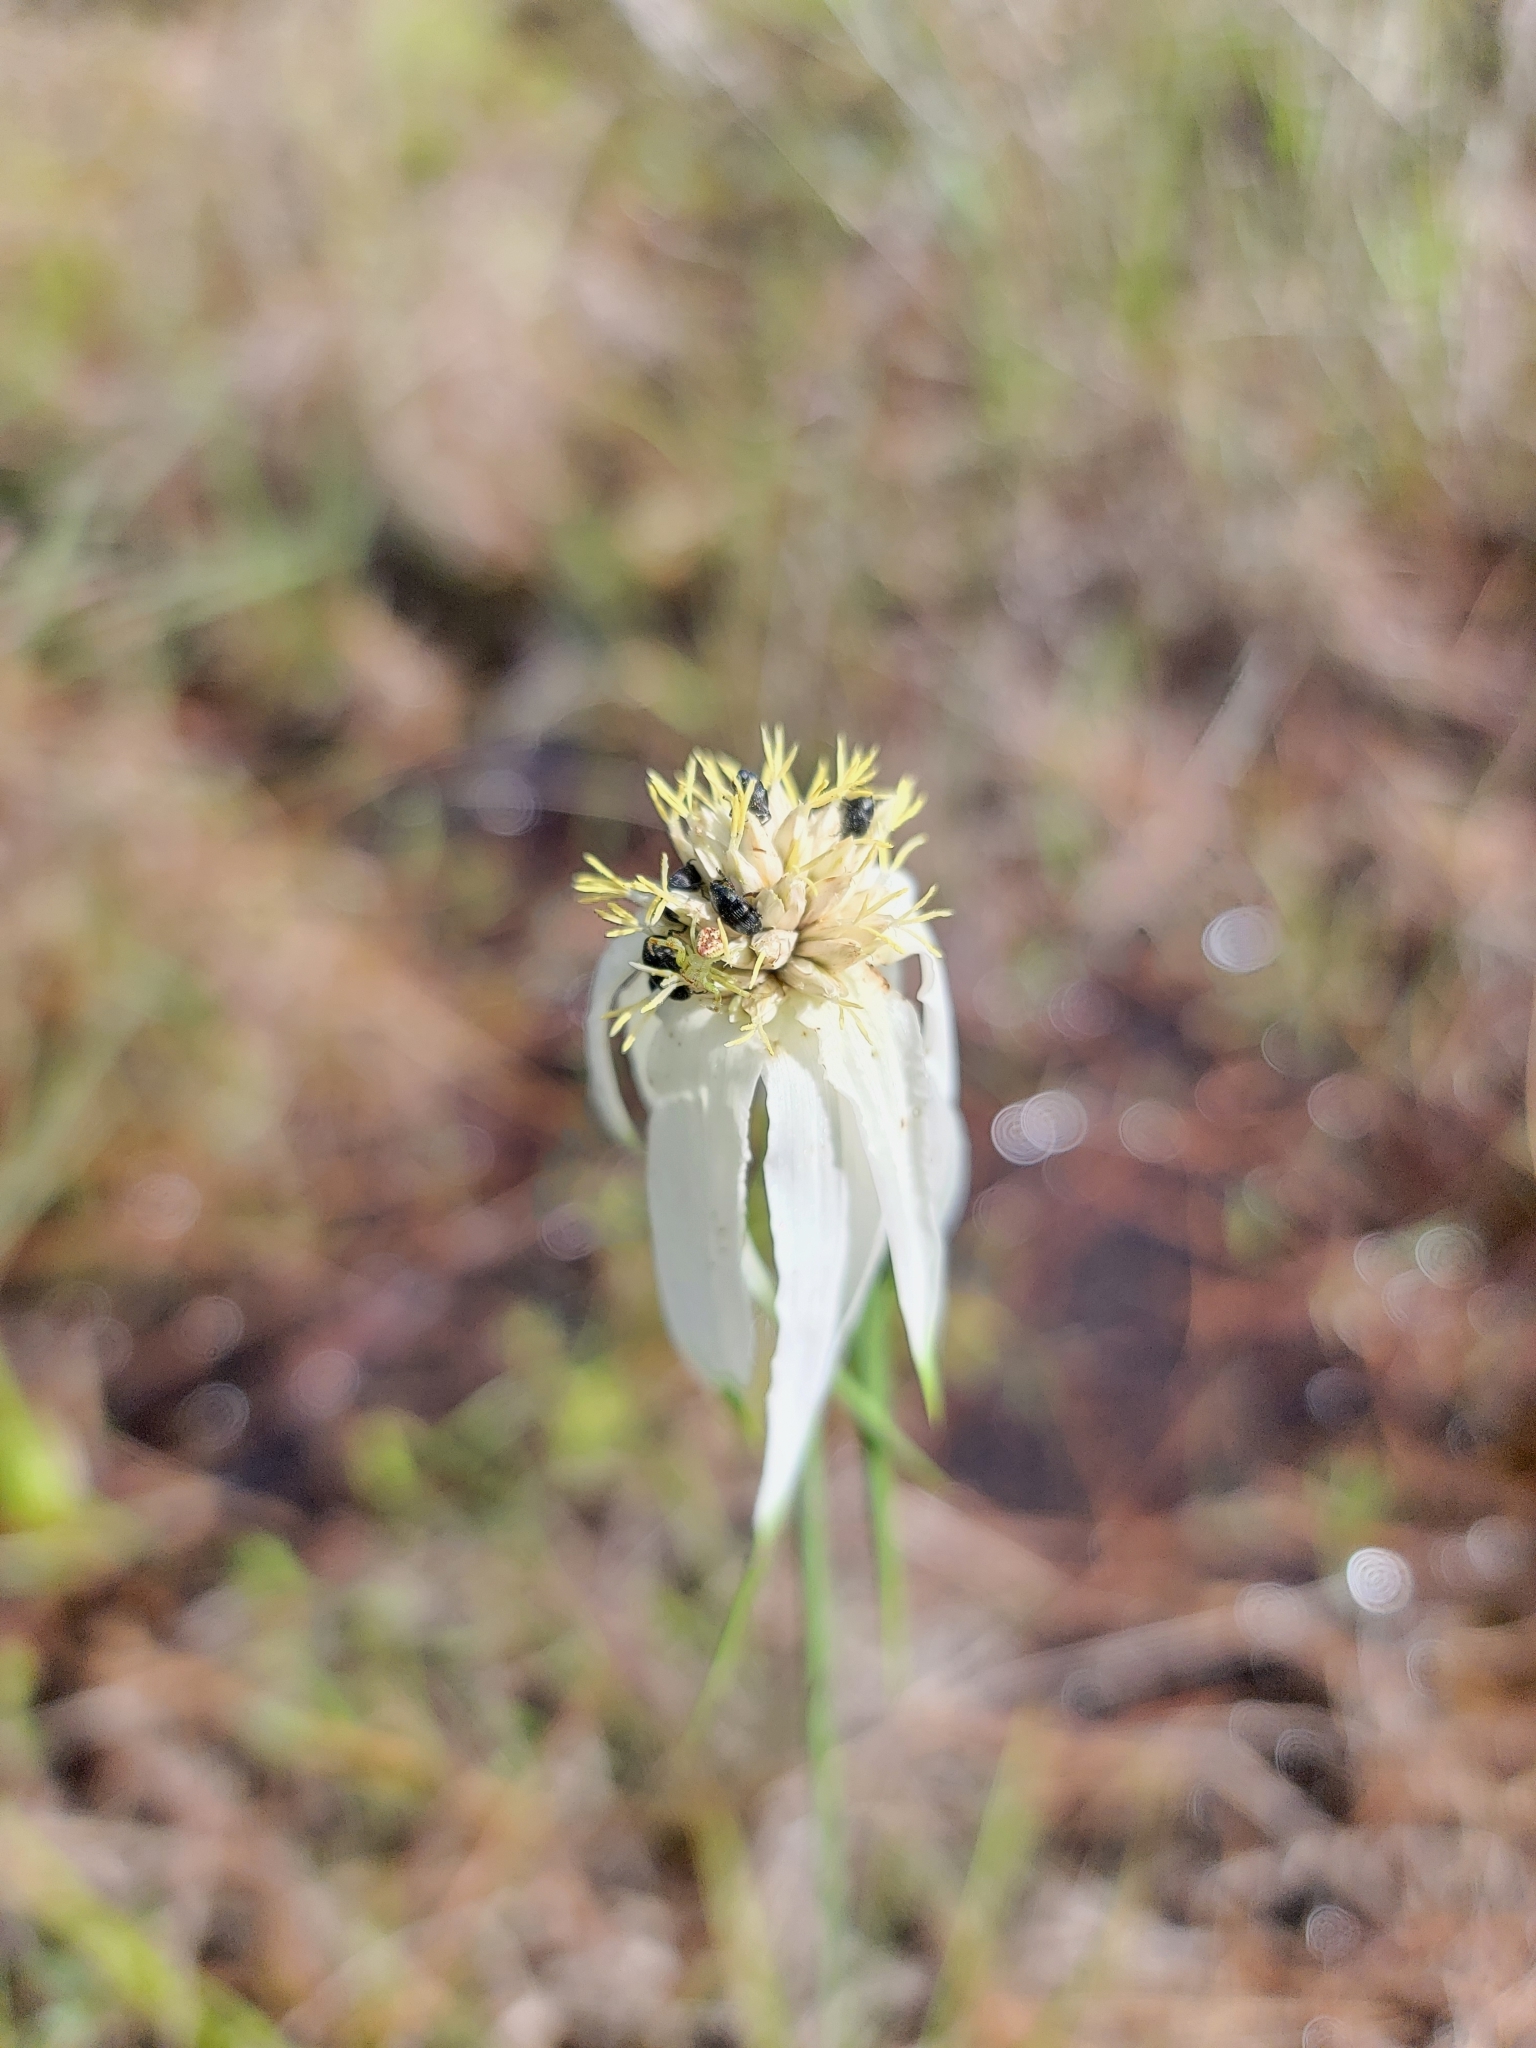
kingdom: Plantae
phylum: Tracheophyta
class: Liliopsida
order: Poales
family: Cyperaceae
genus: Rhynchospora
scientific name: Rhynchospora latifolia
